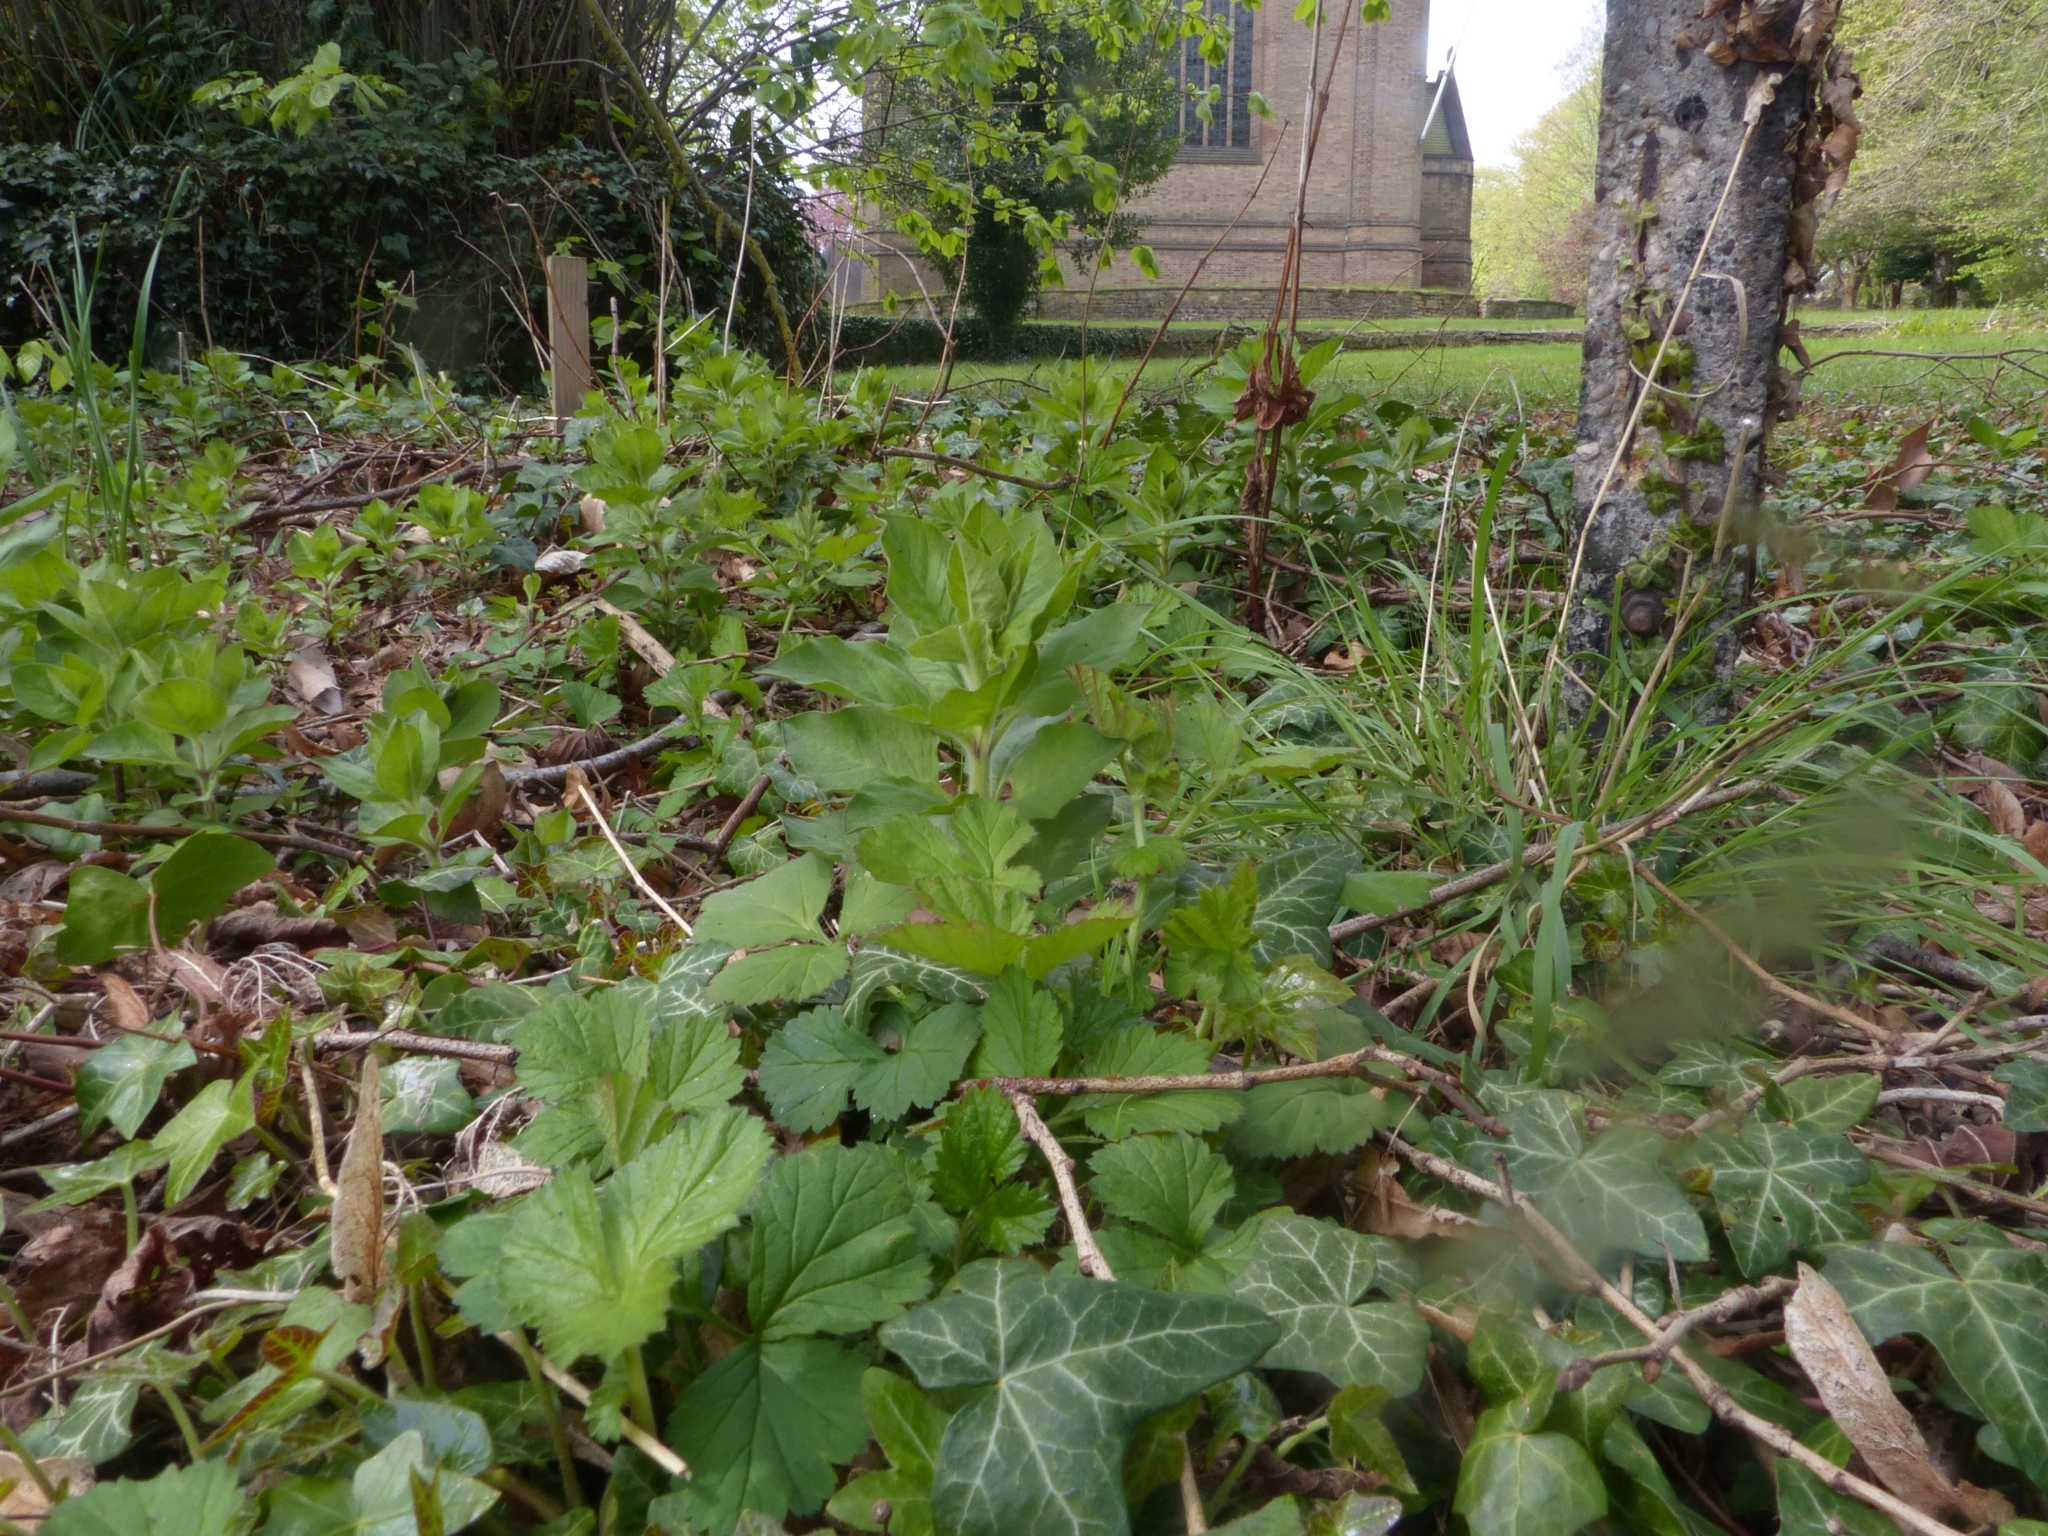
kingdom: Plantae
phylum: Tracheophyta
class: Magnoliopsida
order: Ericales
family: Primulaceae
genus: Lysimachia
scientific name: Lysimachia punctata
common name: Dotted loosestrife
